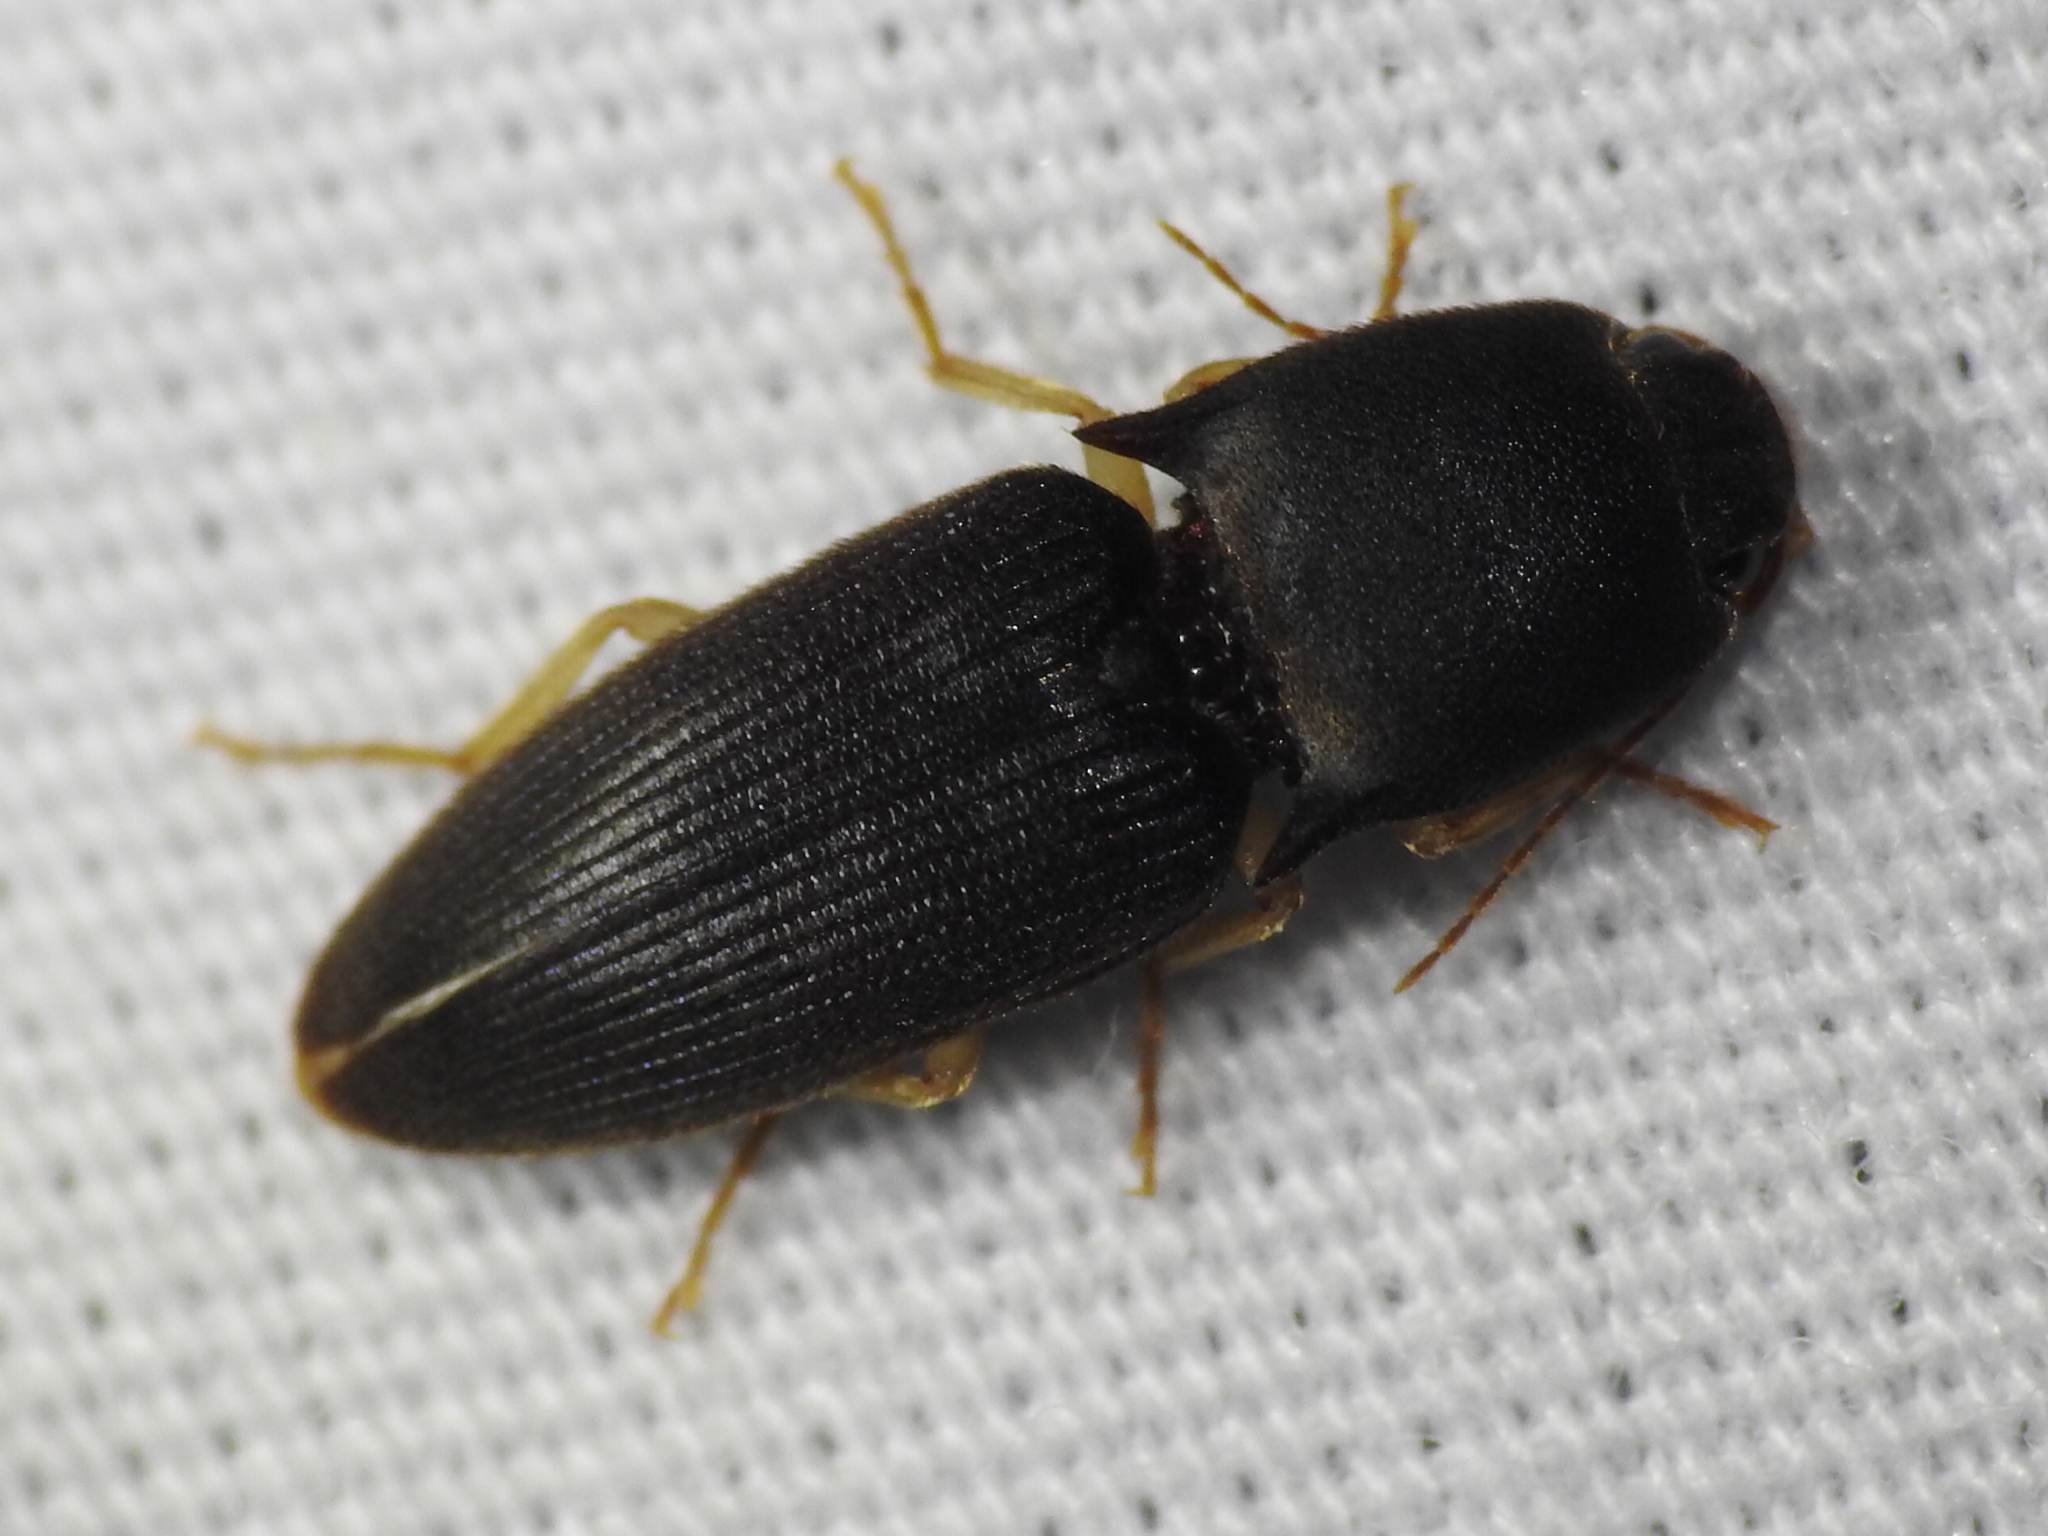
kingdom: Animalia
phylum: Arthropoda
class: Insecta
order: Coleoptera
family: Elateridae
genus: Heteroderes
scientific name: Heteroderes amplicollis
